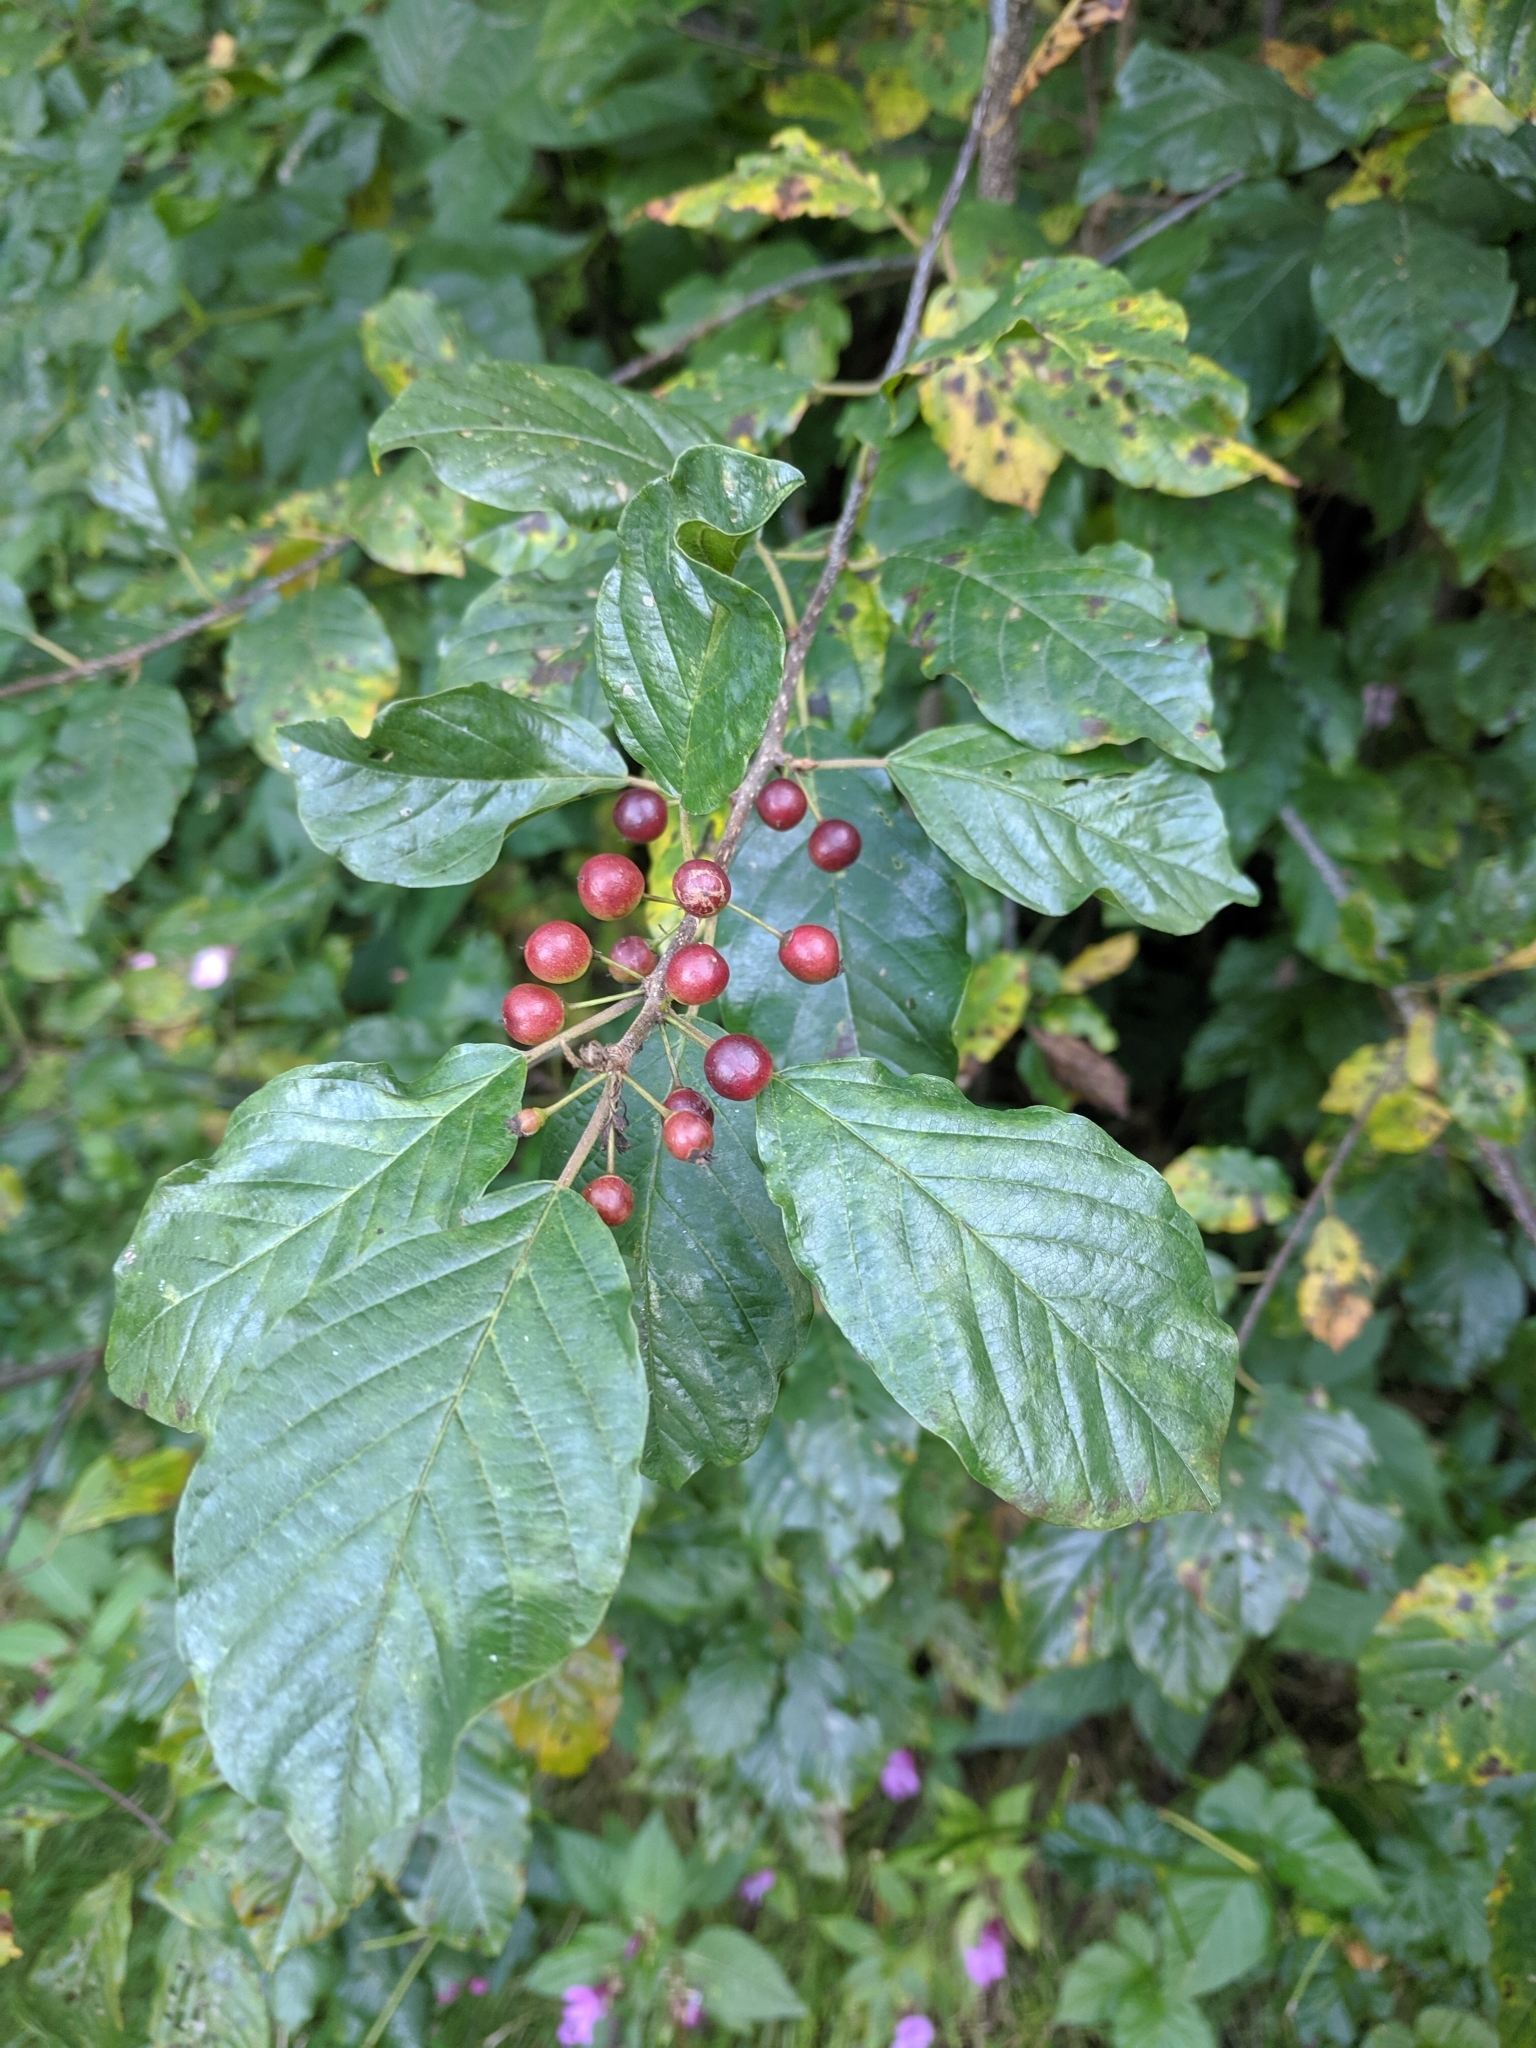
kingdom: Plantae
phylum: Tracheophyta
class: Magnoliopsida
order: Rosales
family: Rhamnaceae
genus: Frangula
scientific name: Frangula alnus
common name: Alder buckthorn
